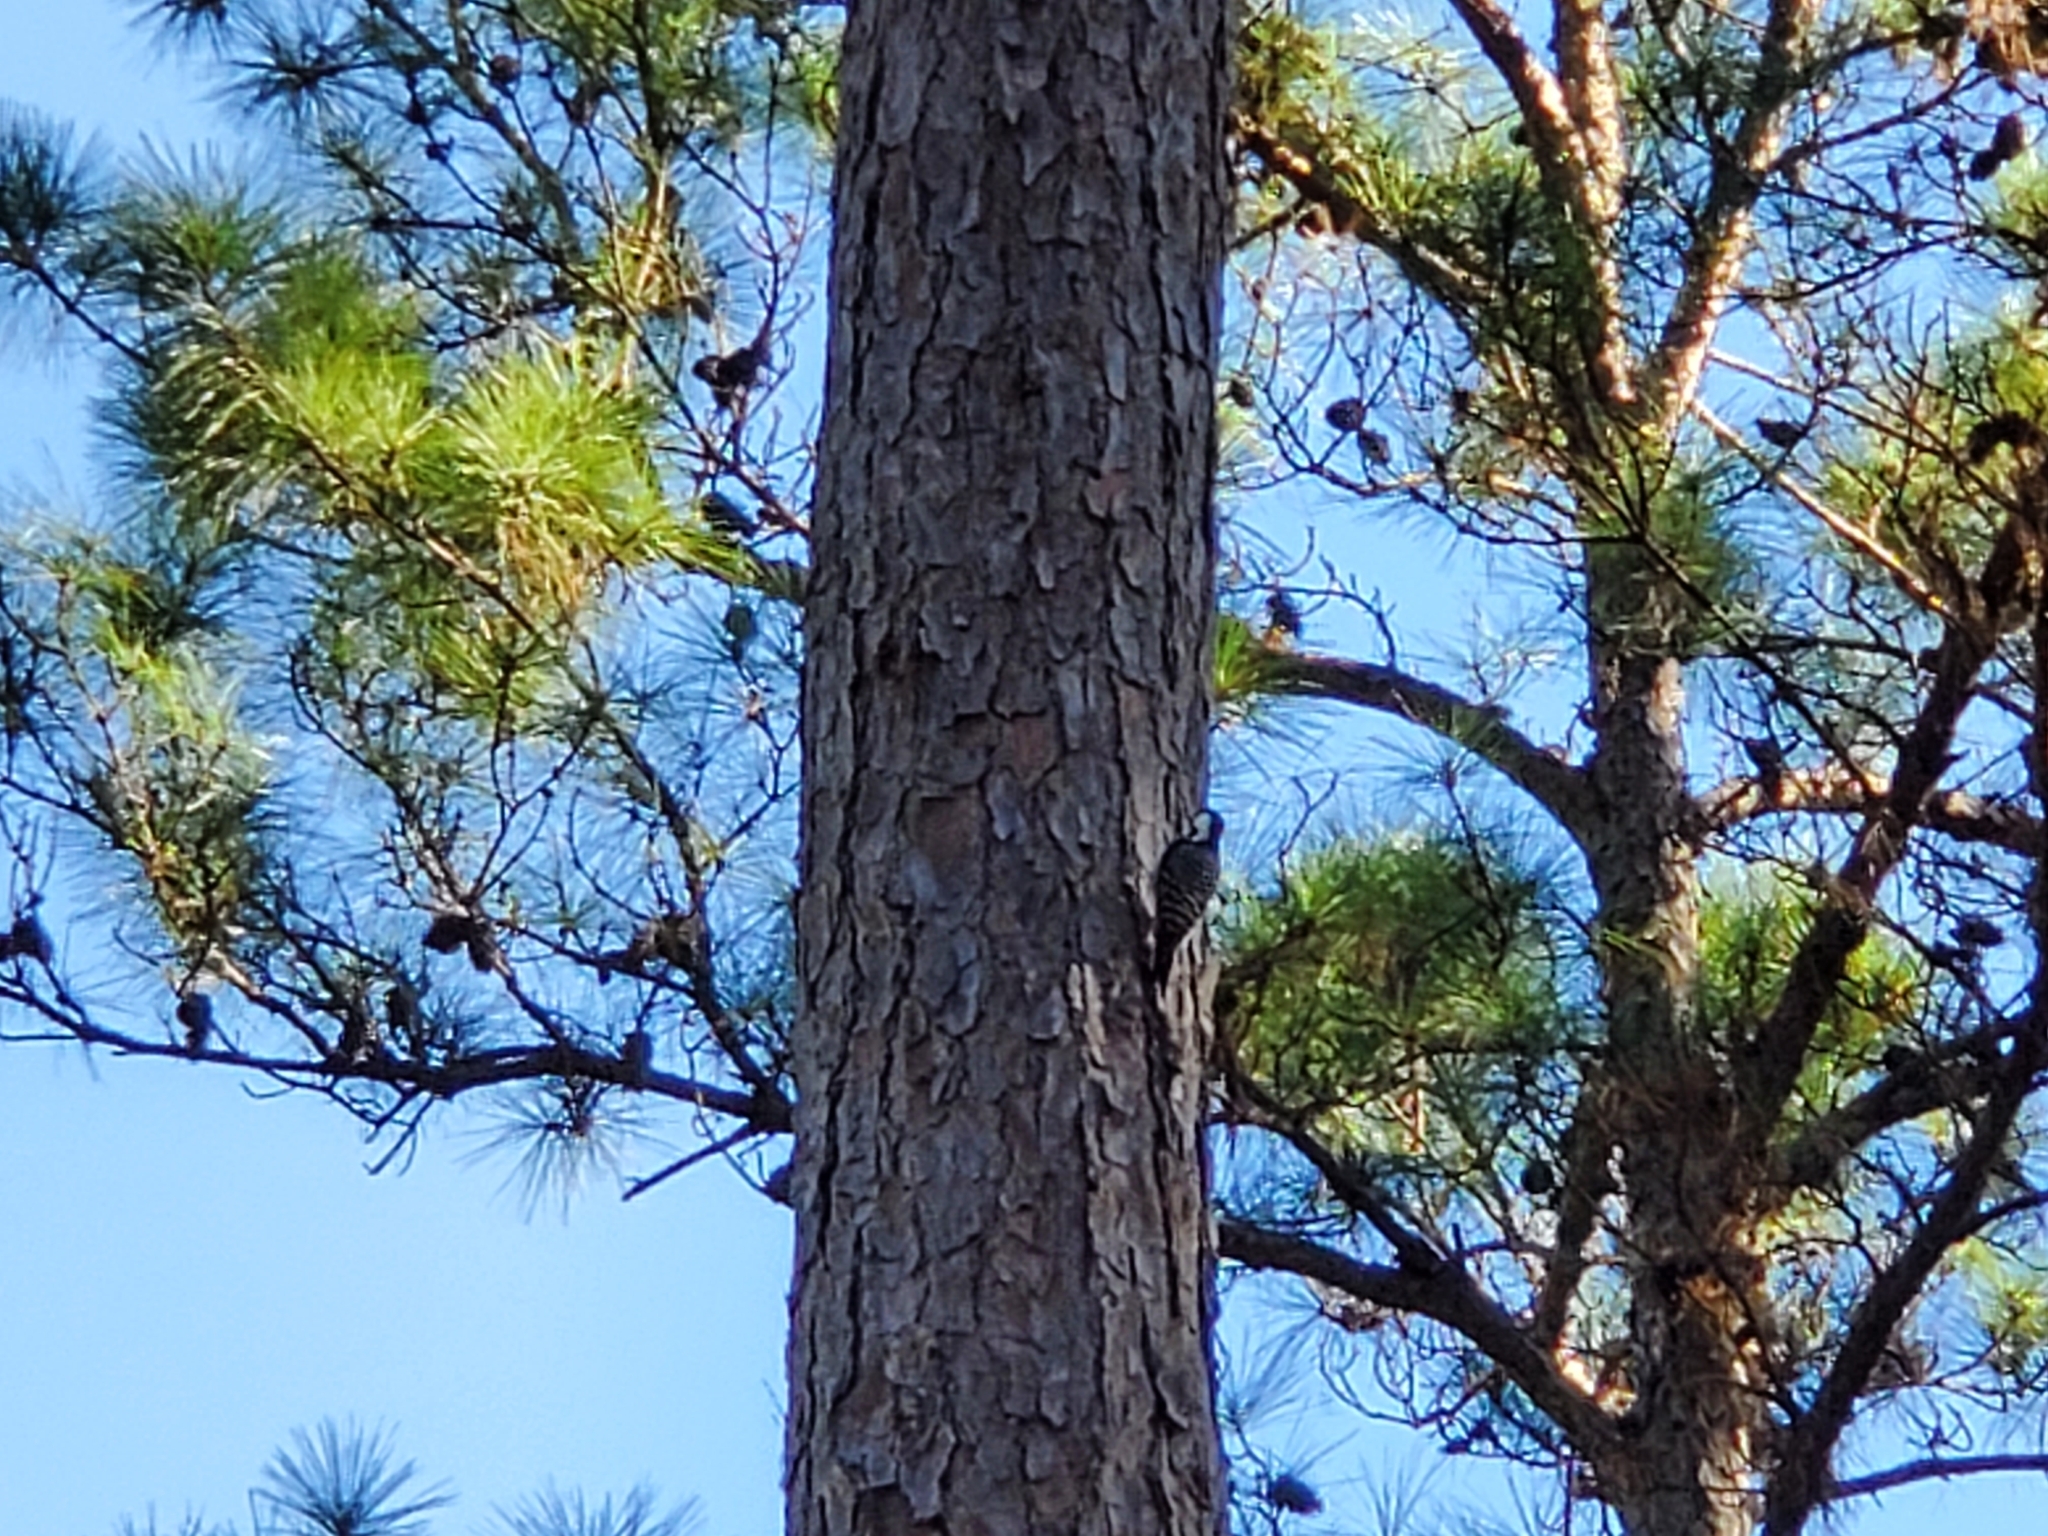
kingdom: Animalia
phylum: Chordata
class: Aves
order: Piciformes
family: Picidae
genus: Leuconotopicus
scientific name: Leuconotopicus borealis
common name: Red-cockaded woodpecker
